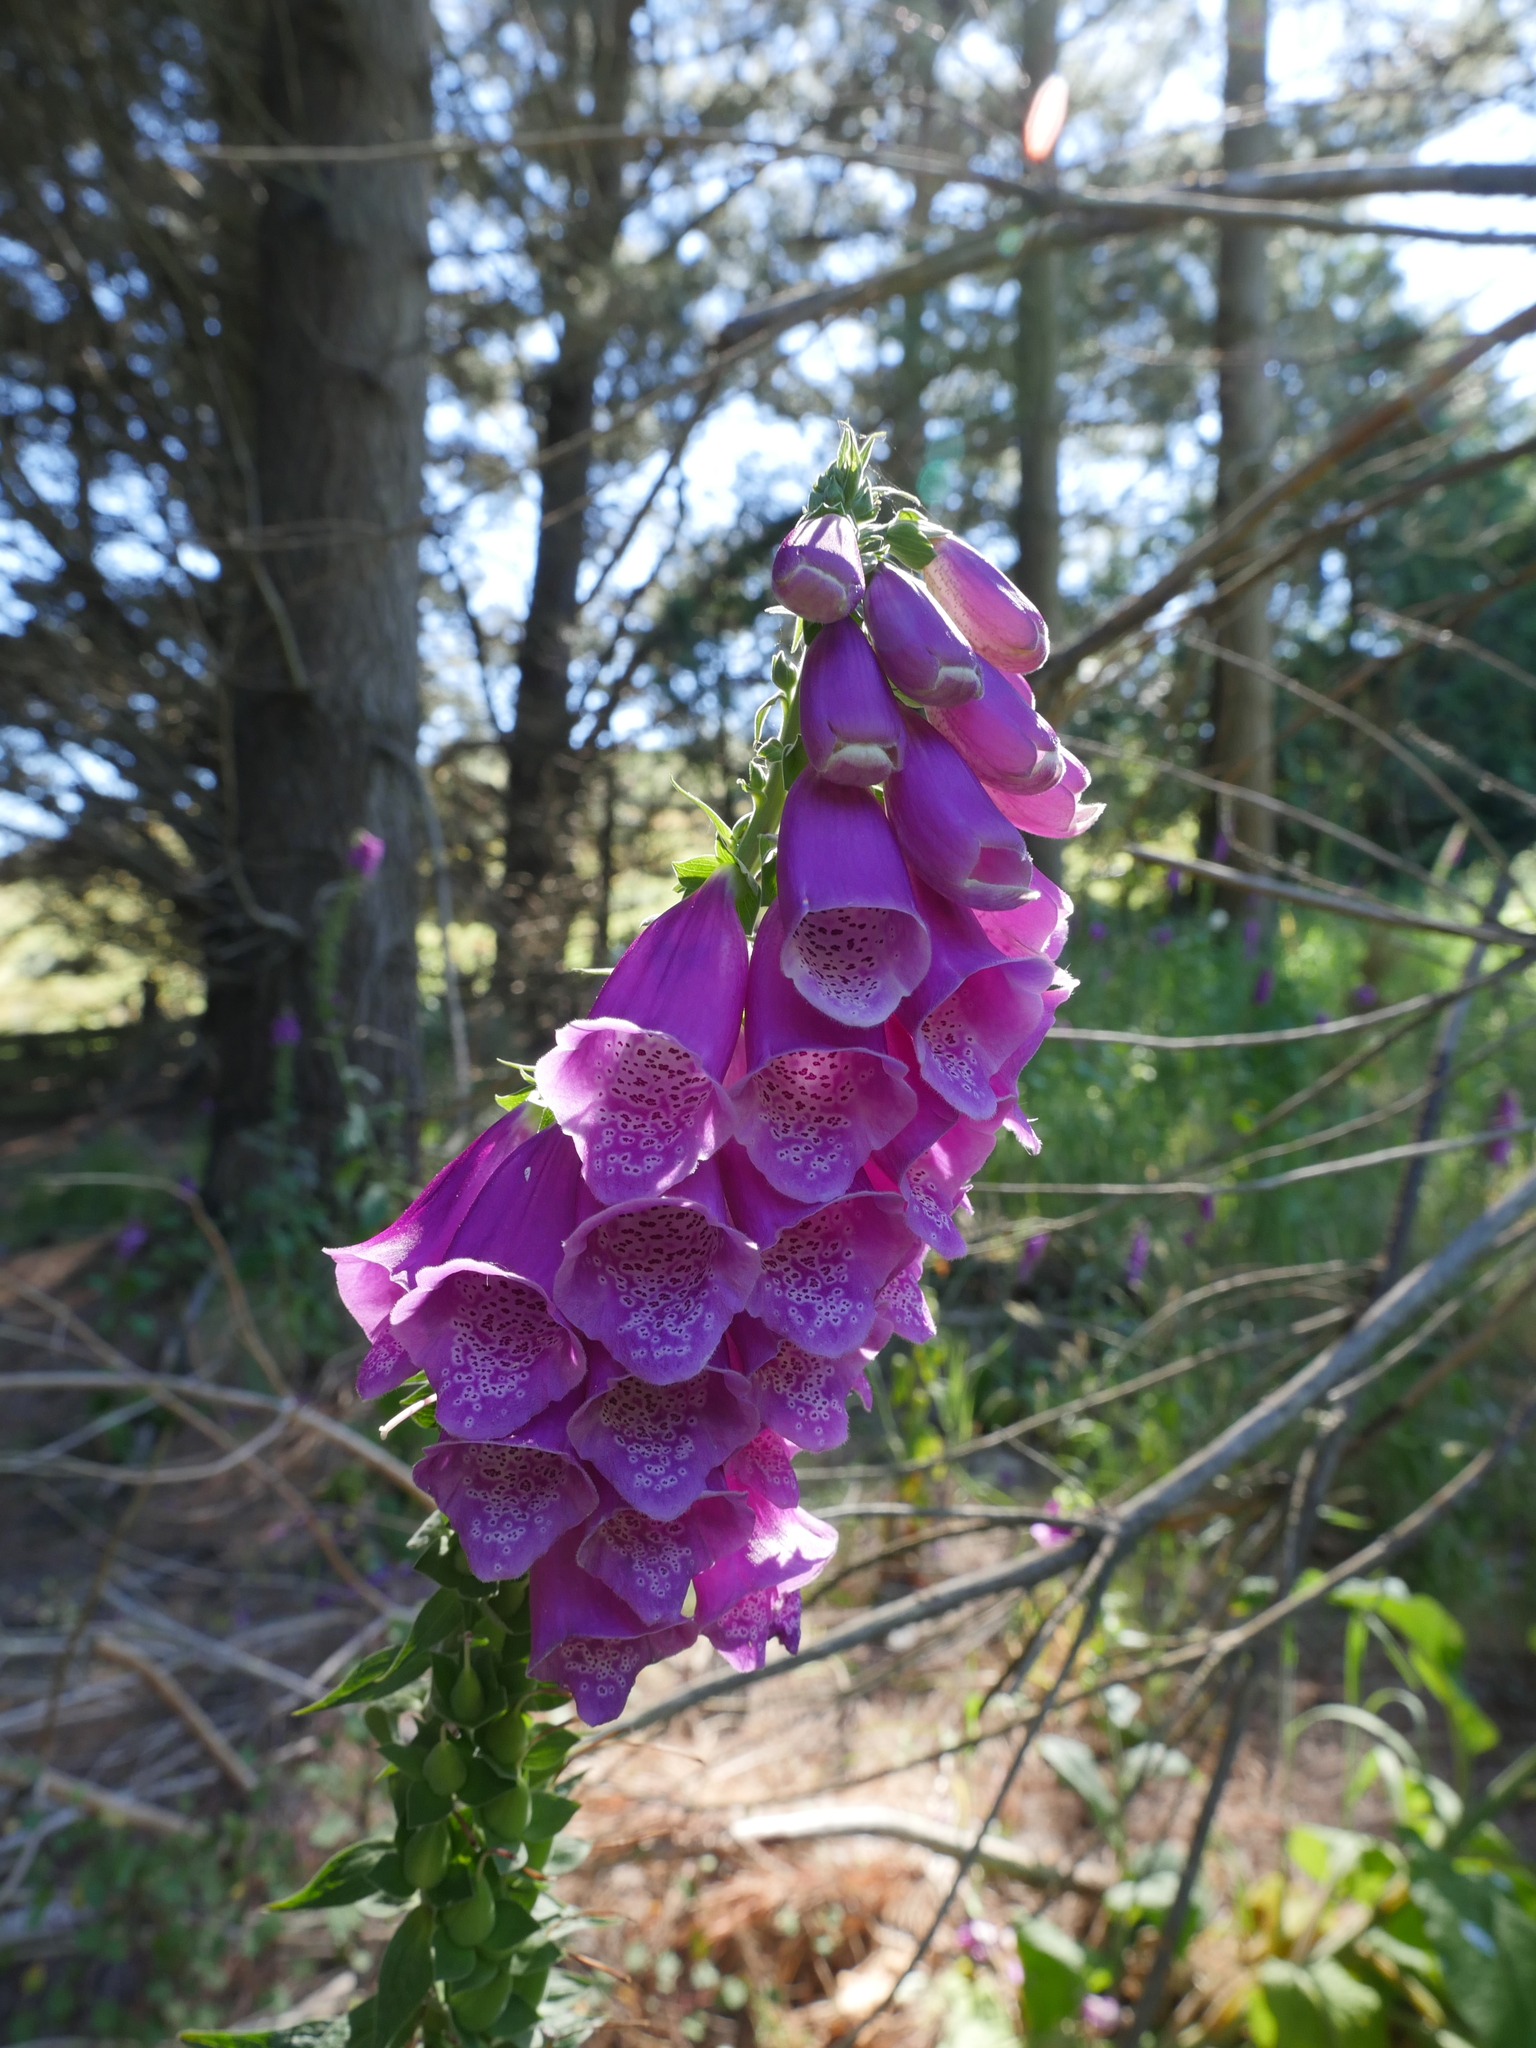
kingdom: Plantae
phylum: Tracheophyta
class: Magnoliopsida
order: Lamiales
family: Plantaginaceae
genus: Digitalis
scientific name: Digitalis purpurea
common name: Foxglove
